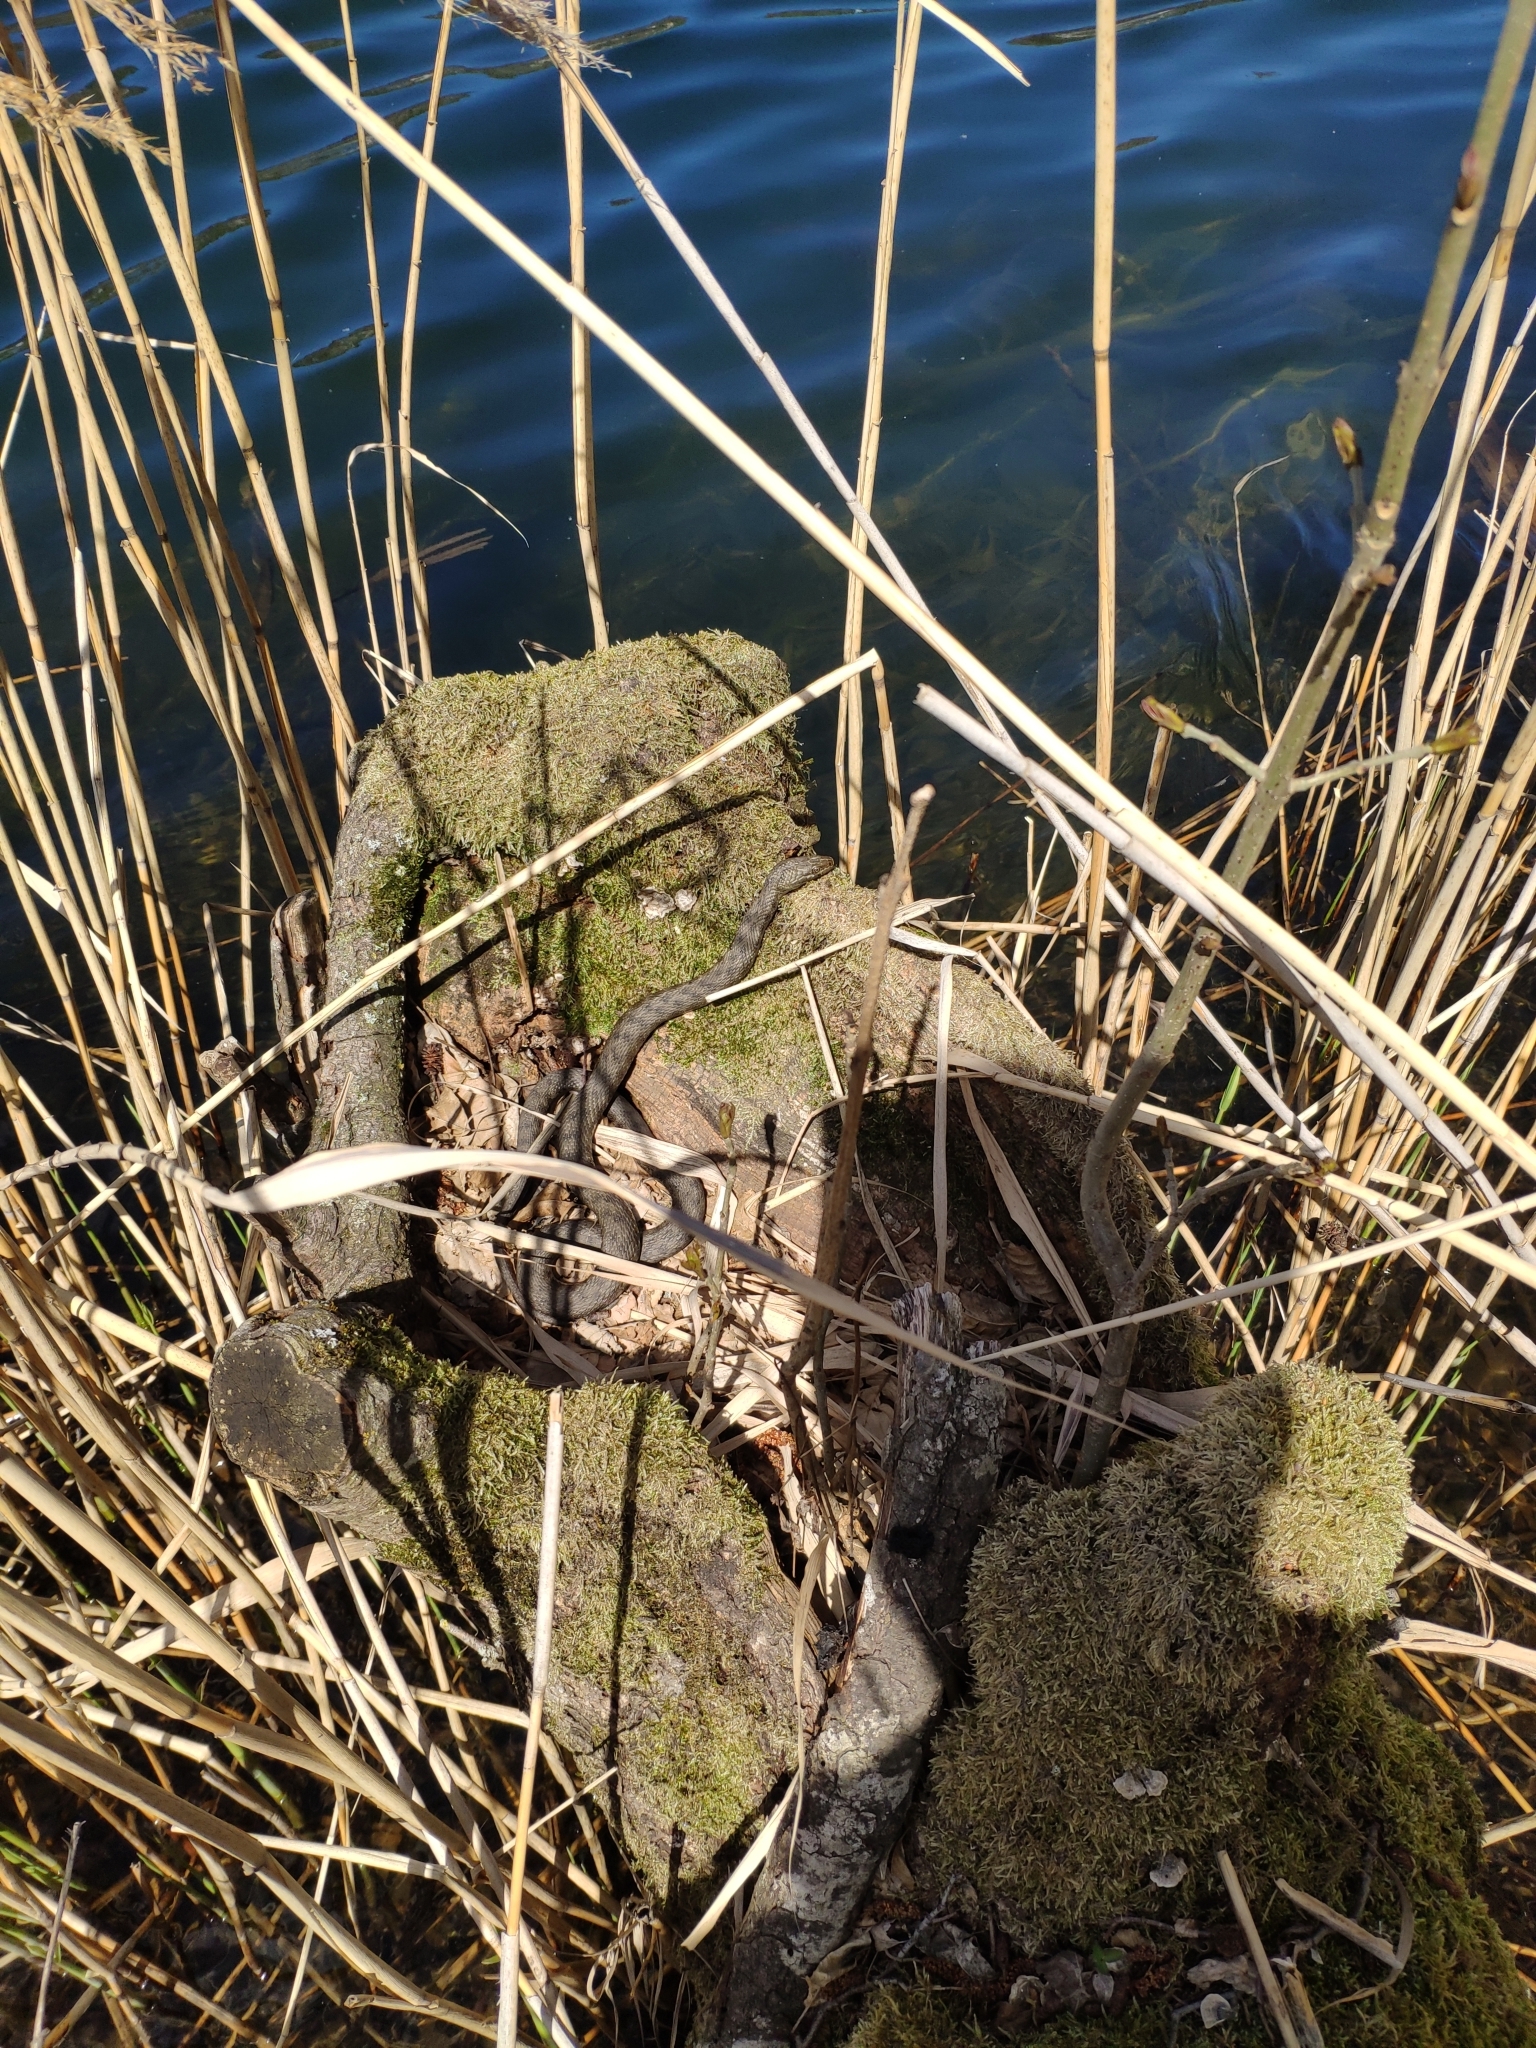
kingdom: Animalia
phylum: Chordata
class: Squamata
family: Colubridae
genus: Natrix
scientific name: Natrix tessellata
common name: Dice snake
